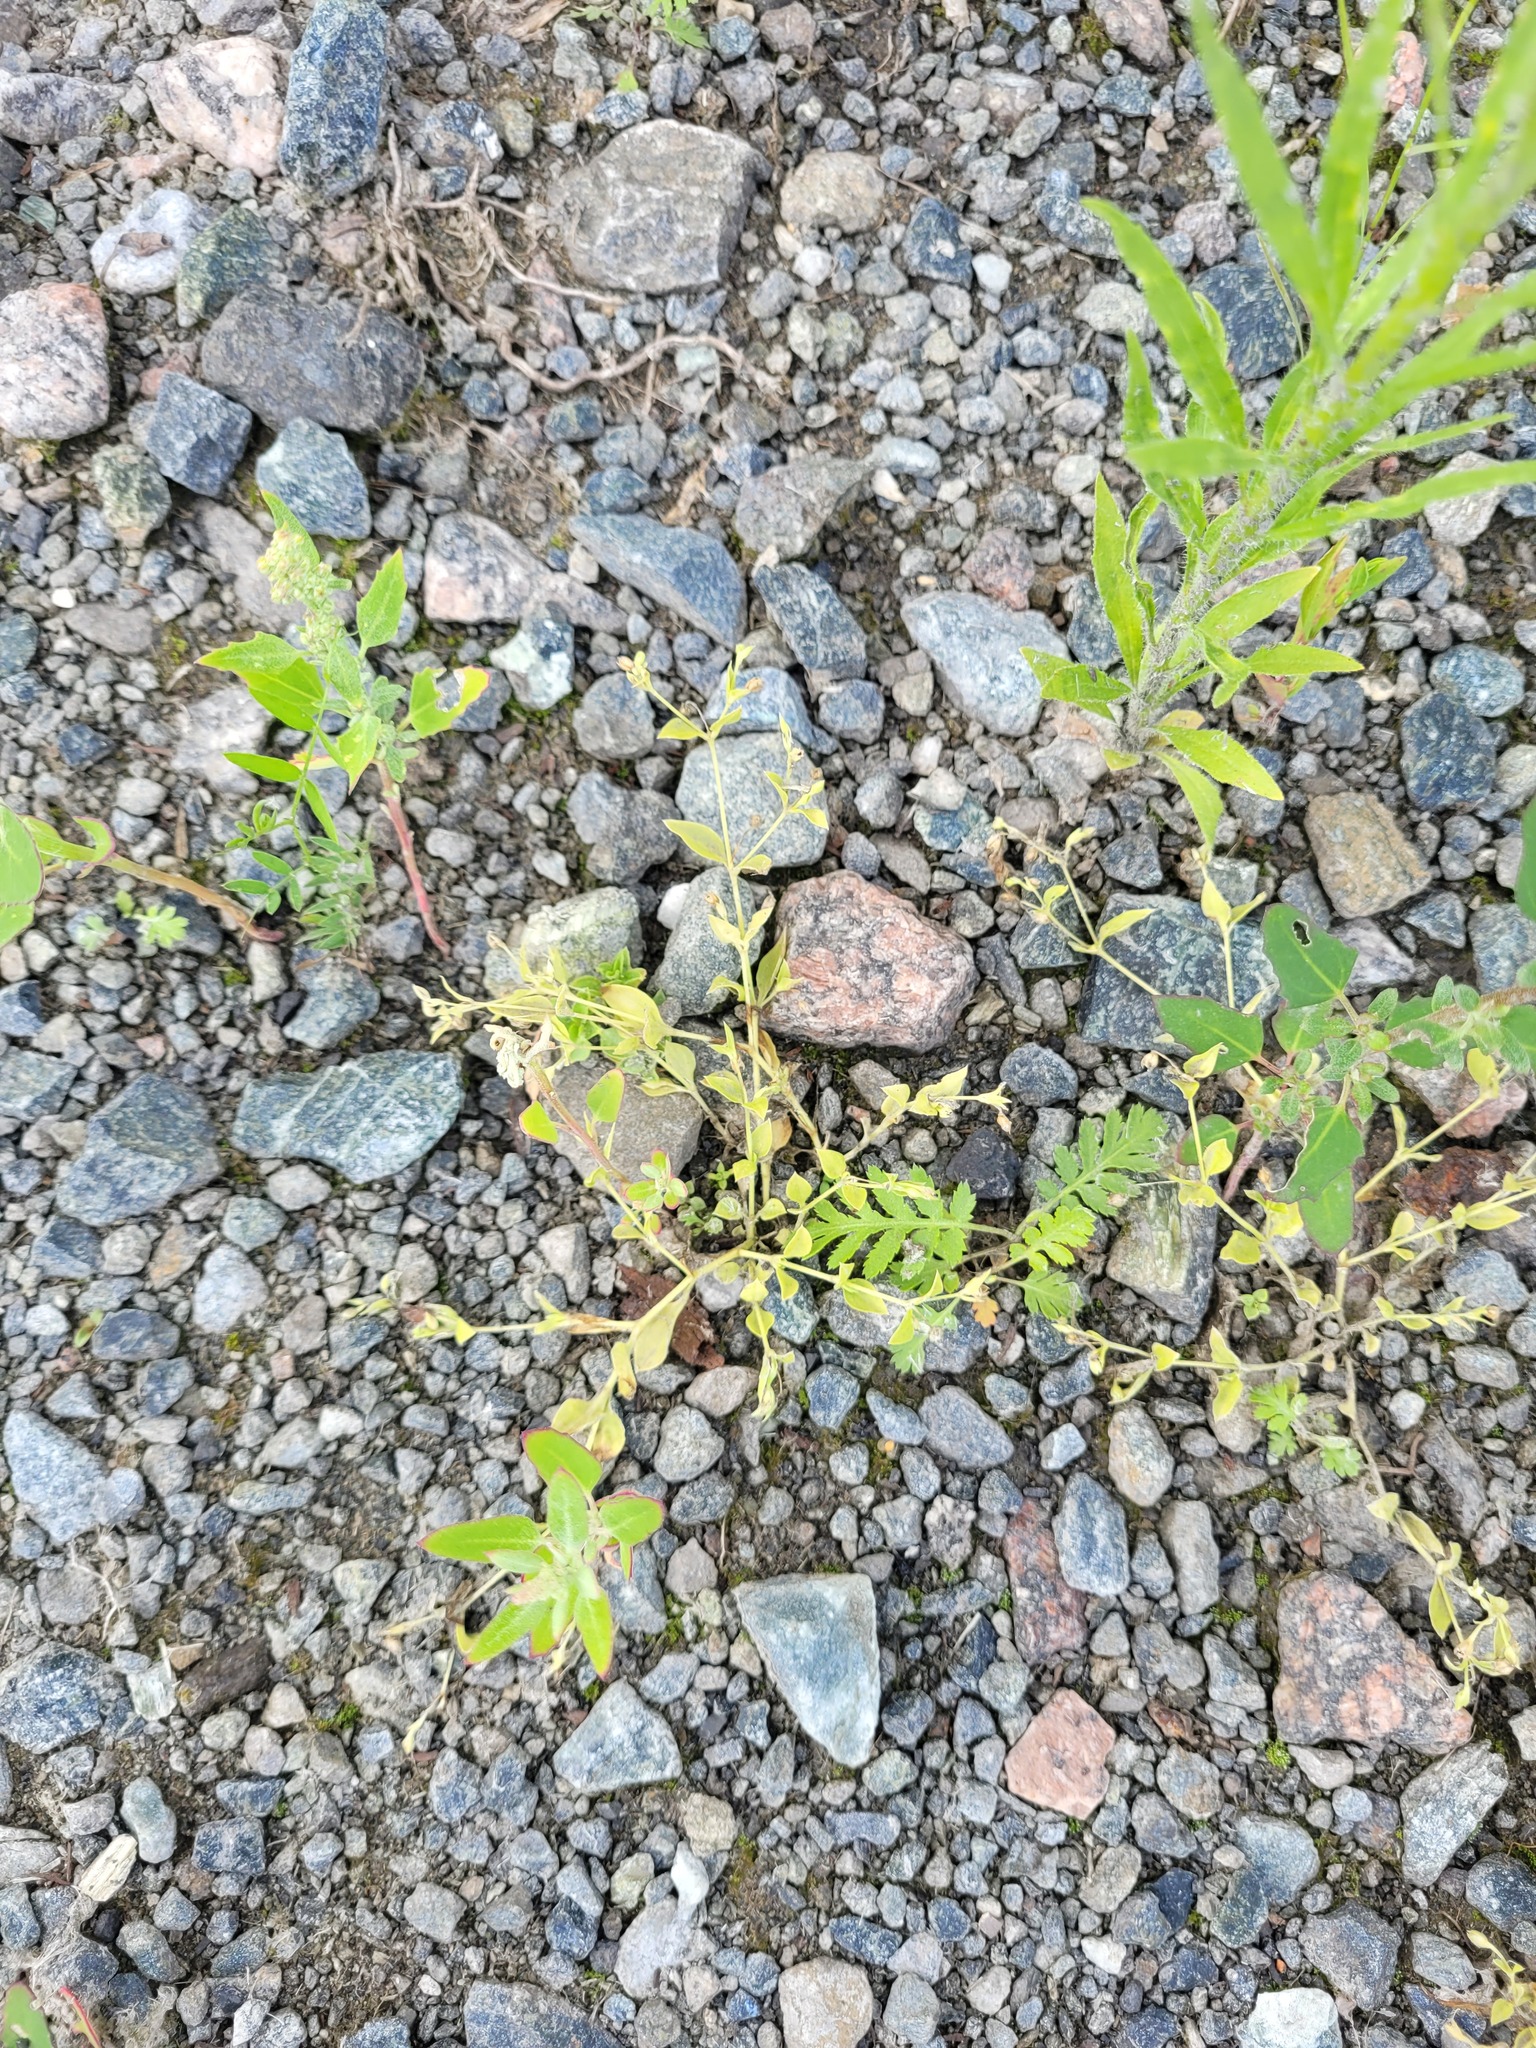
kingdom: Plantae
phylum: Tracheophyta
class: Magnoliopsida
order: Caryophyllales
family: Caryophyllaceae
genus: Moehringia
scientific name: Moehringia trinervia
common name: Three-nerved sandwort
